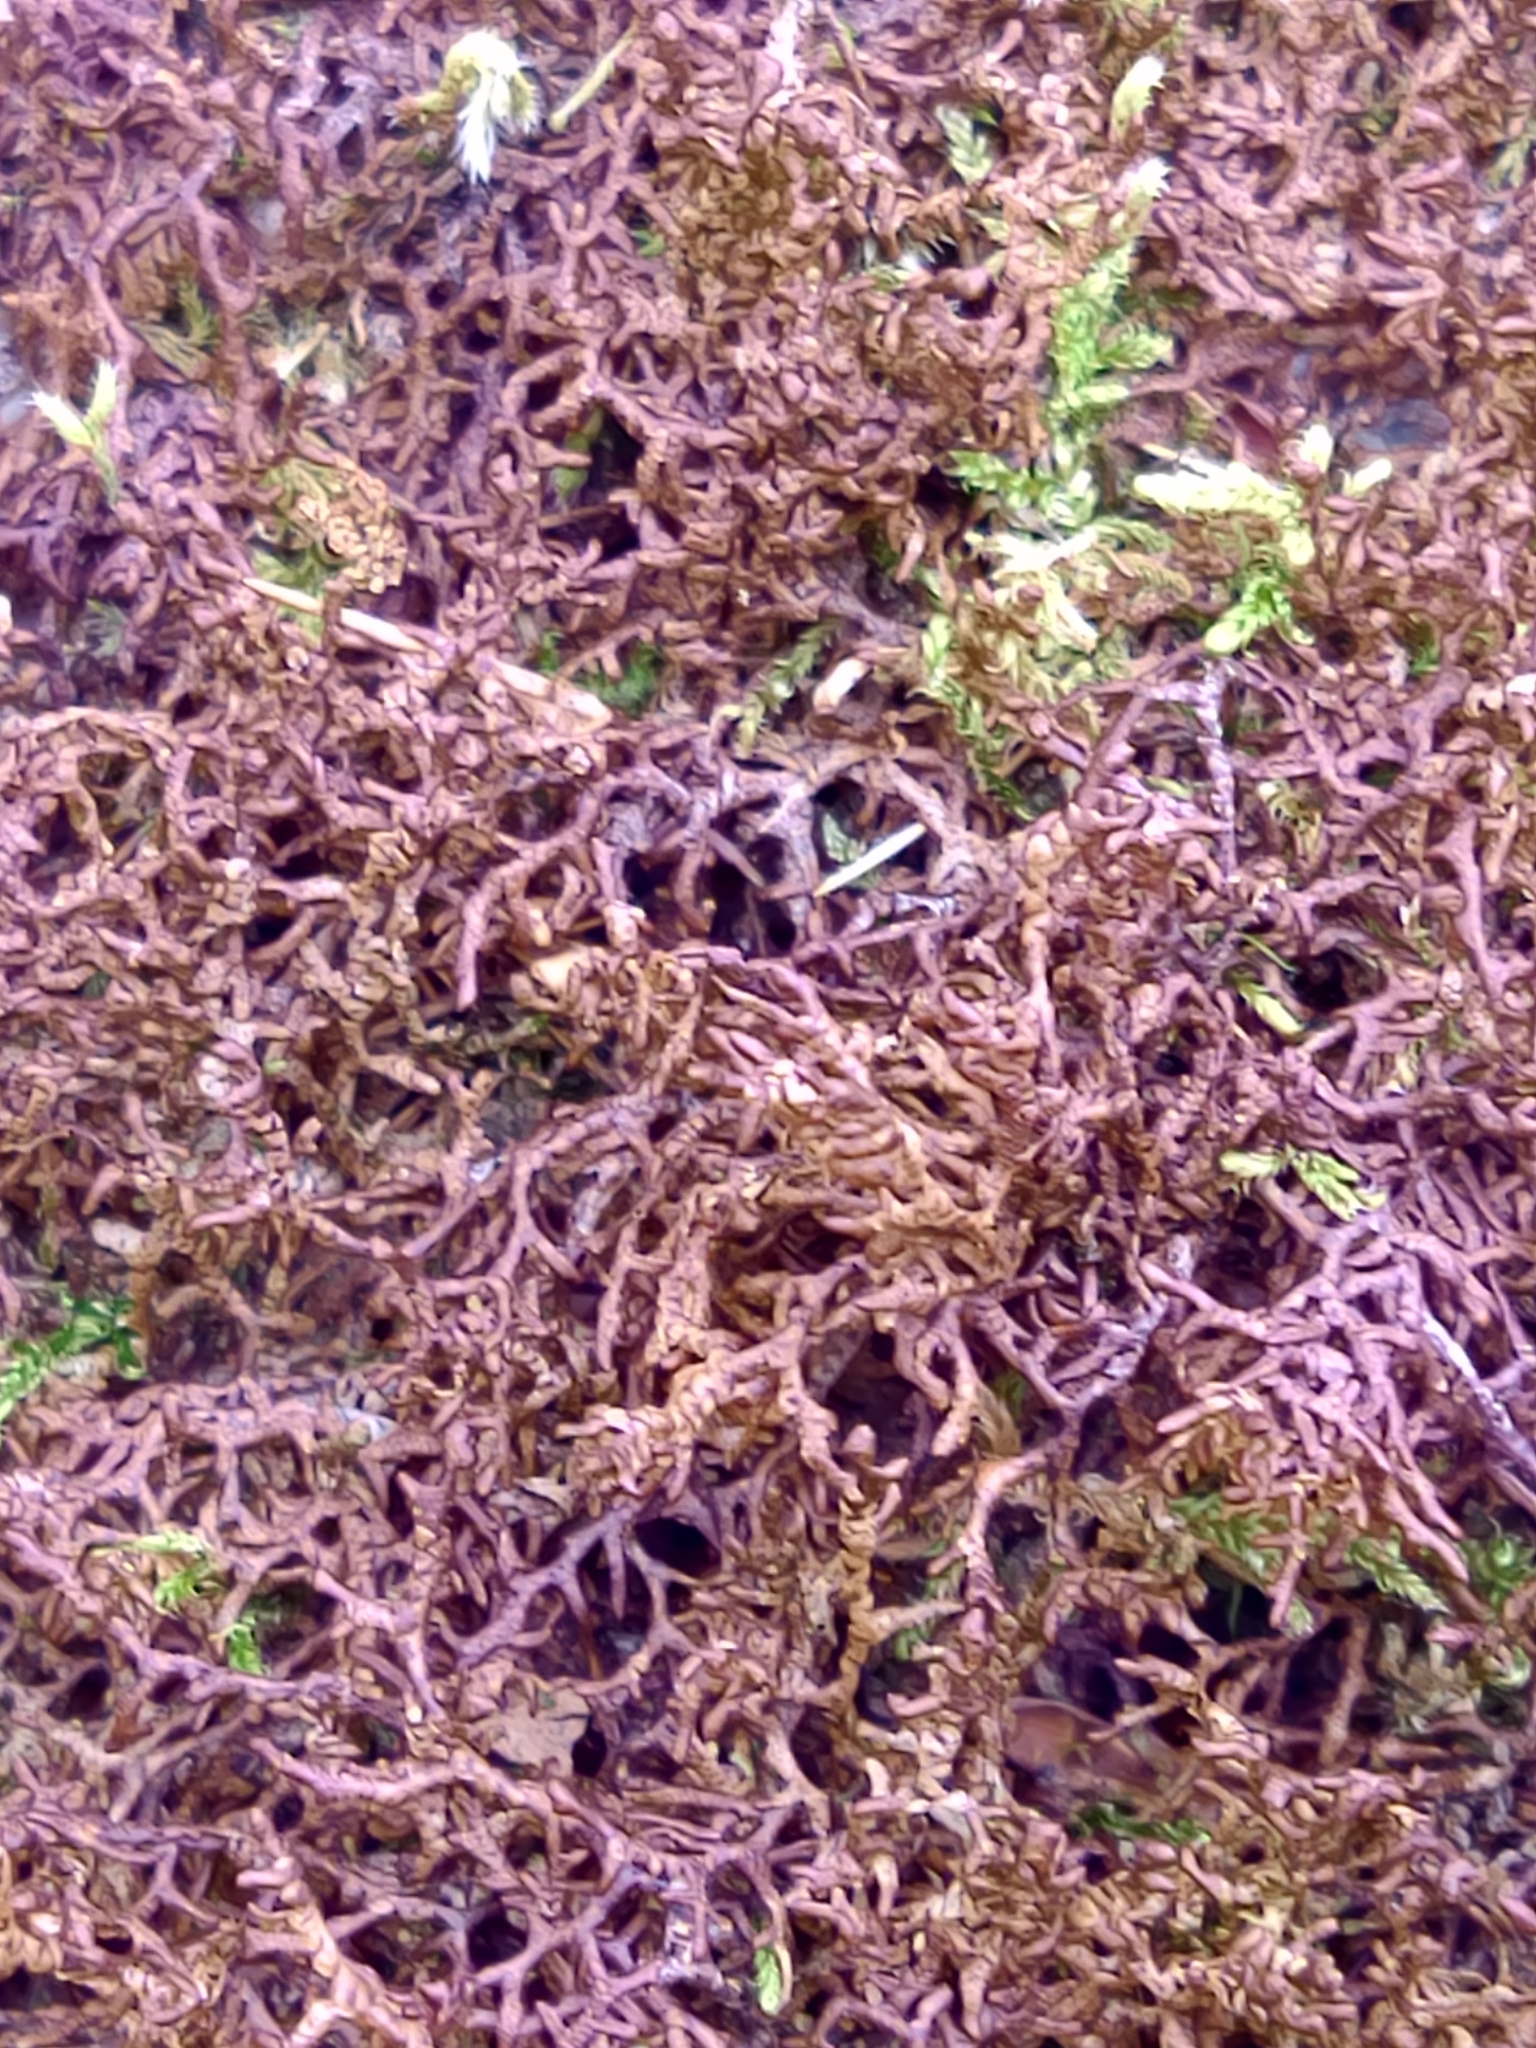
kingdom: Plantae
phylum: Marchantiophyta
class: Jungermanniopsida
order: Porellales
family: Frullaniaceae
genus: Frullania
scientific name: Frullania tamarisci
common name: Tamarisk scalewort
